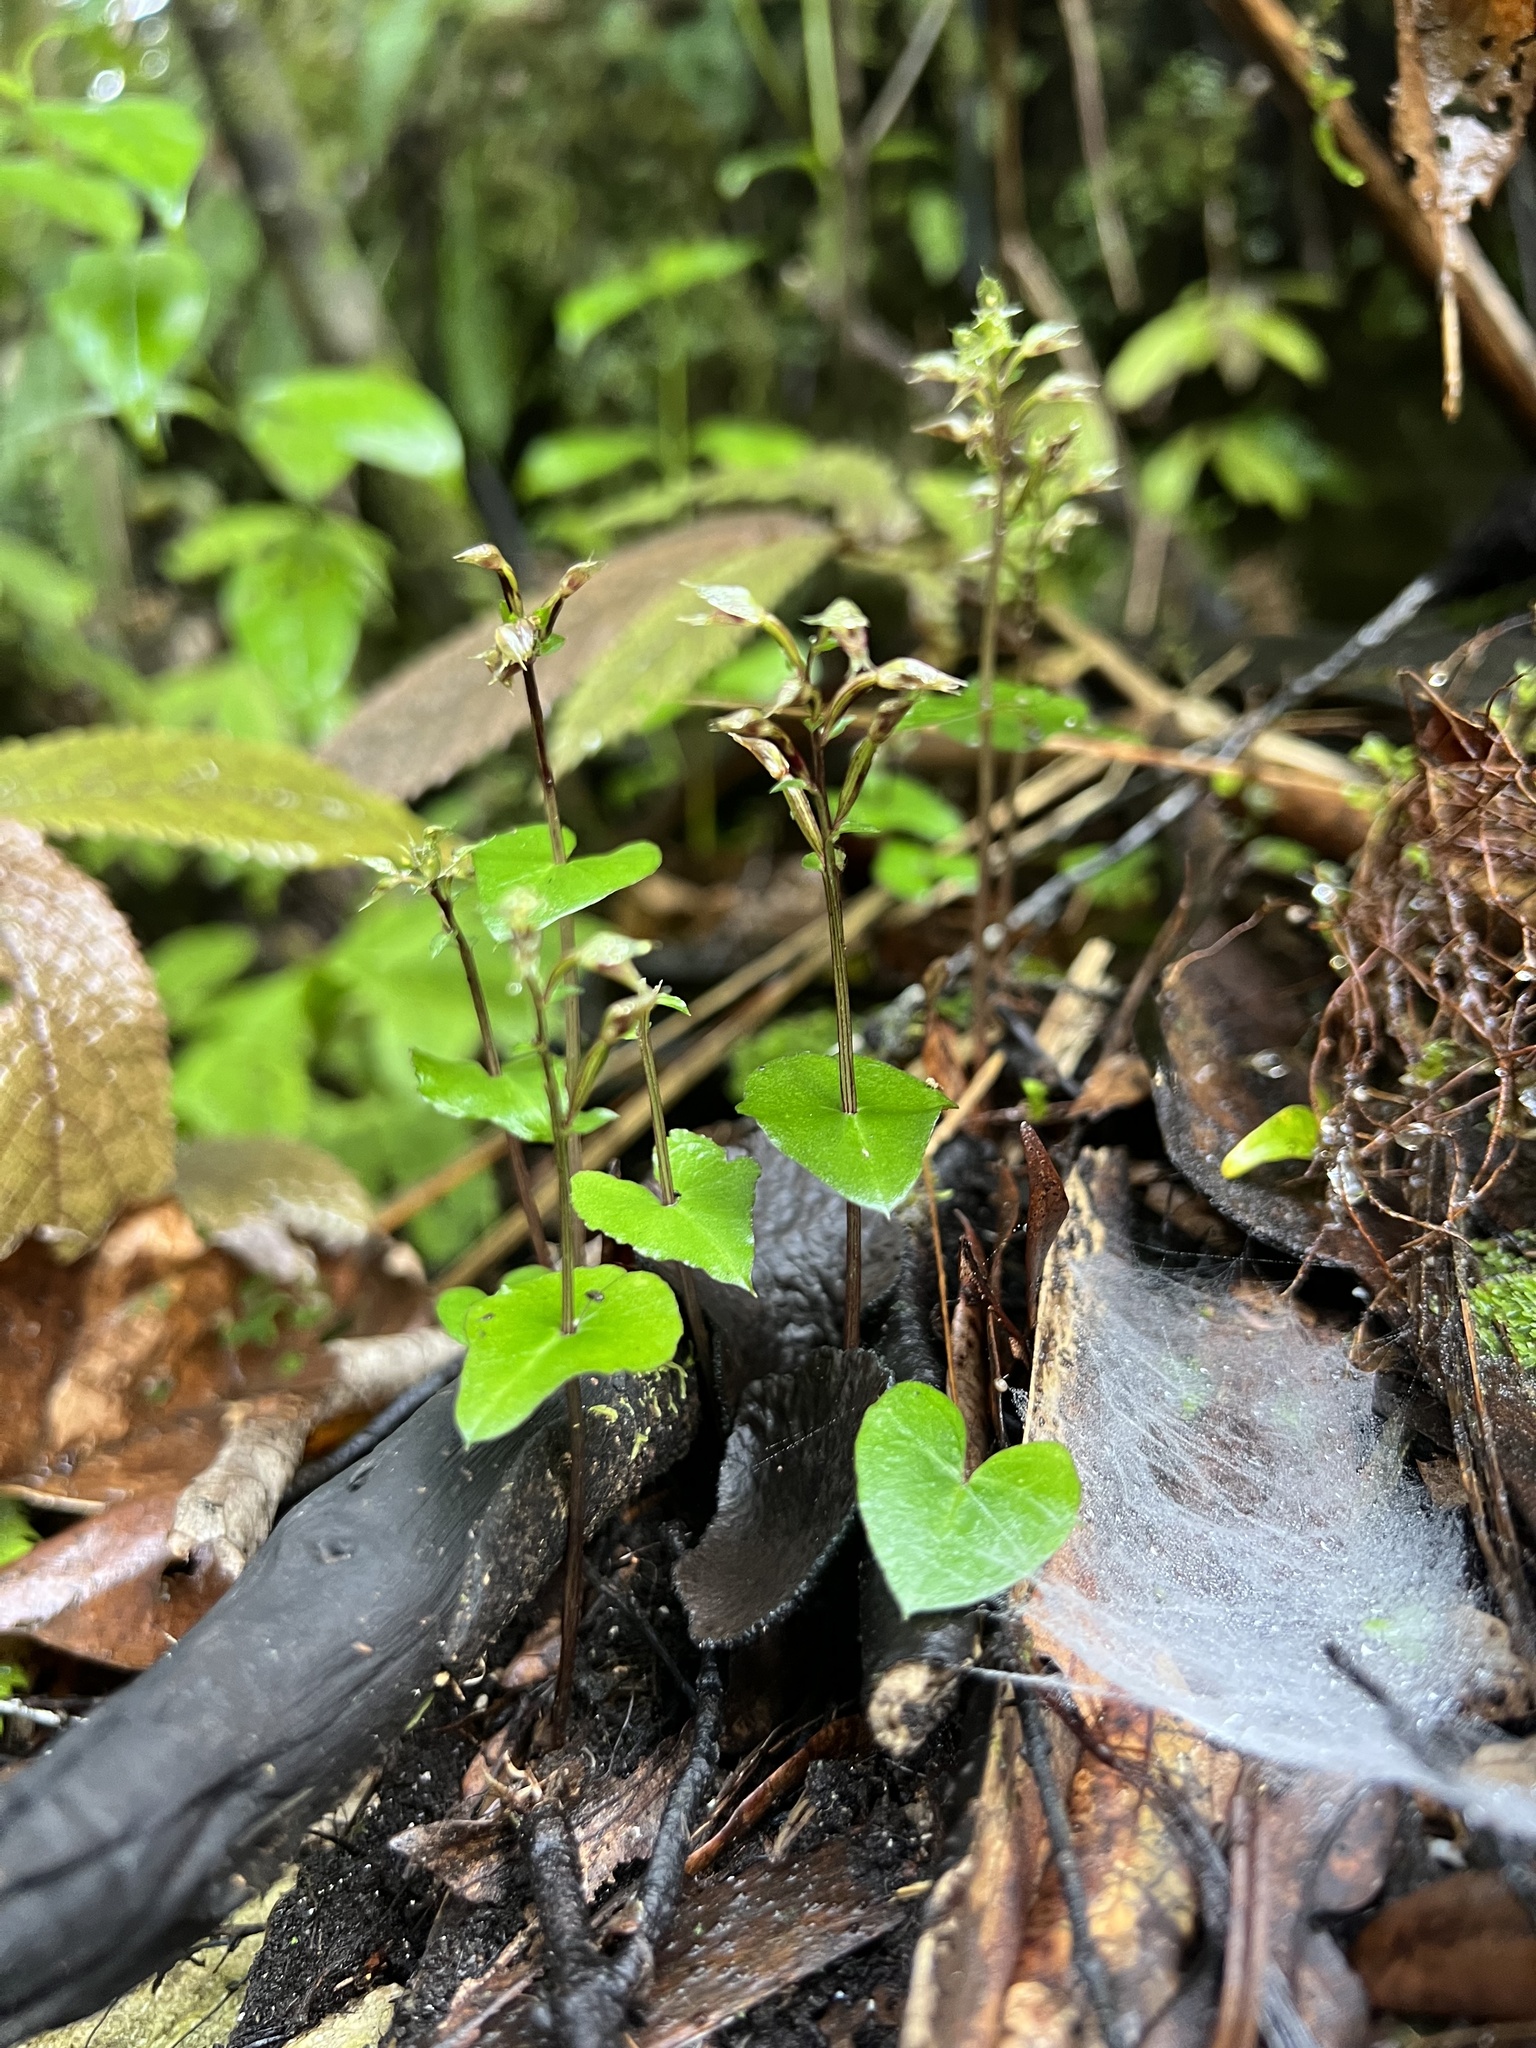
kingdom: Plantae
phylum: Tracheophyta
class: Liliopsida
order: Asparagales
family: Orchidaceae
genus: Acianthus
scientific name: Acianthus sinclairii
